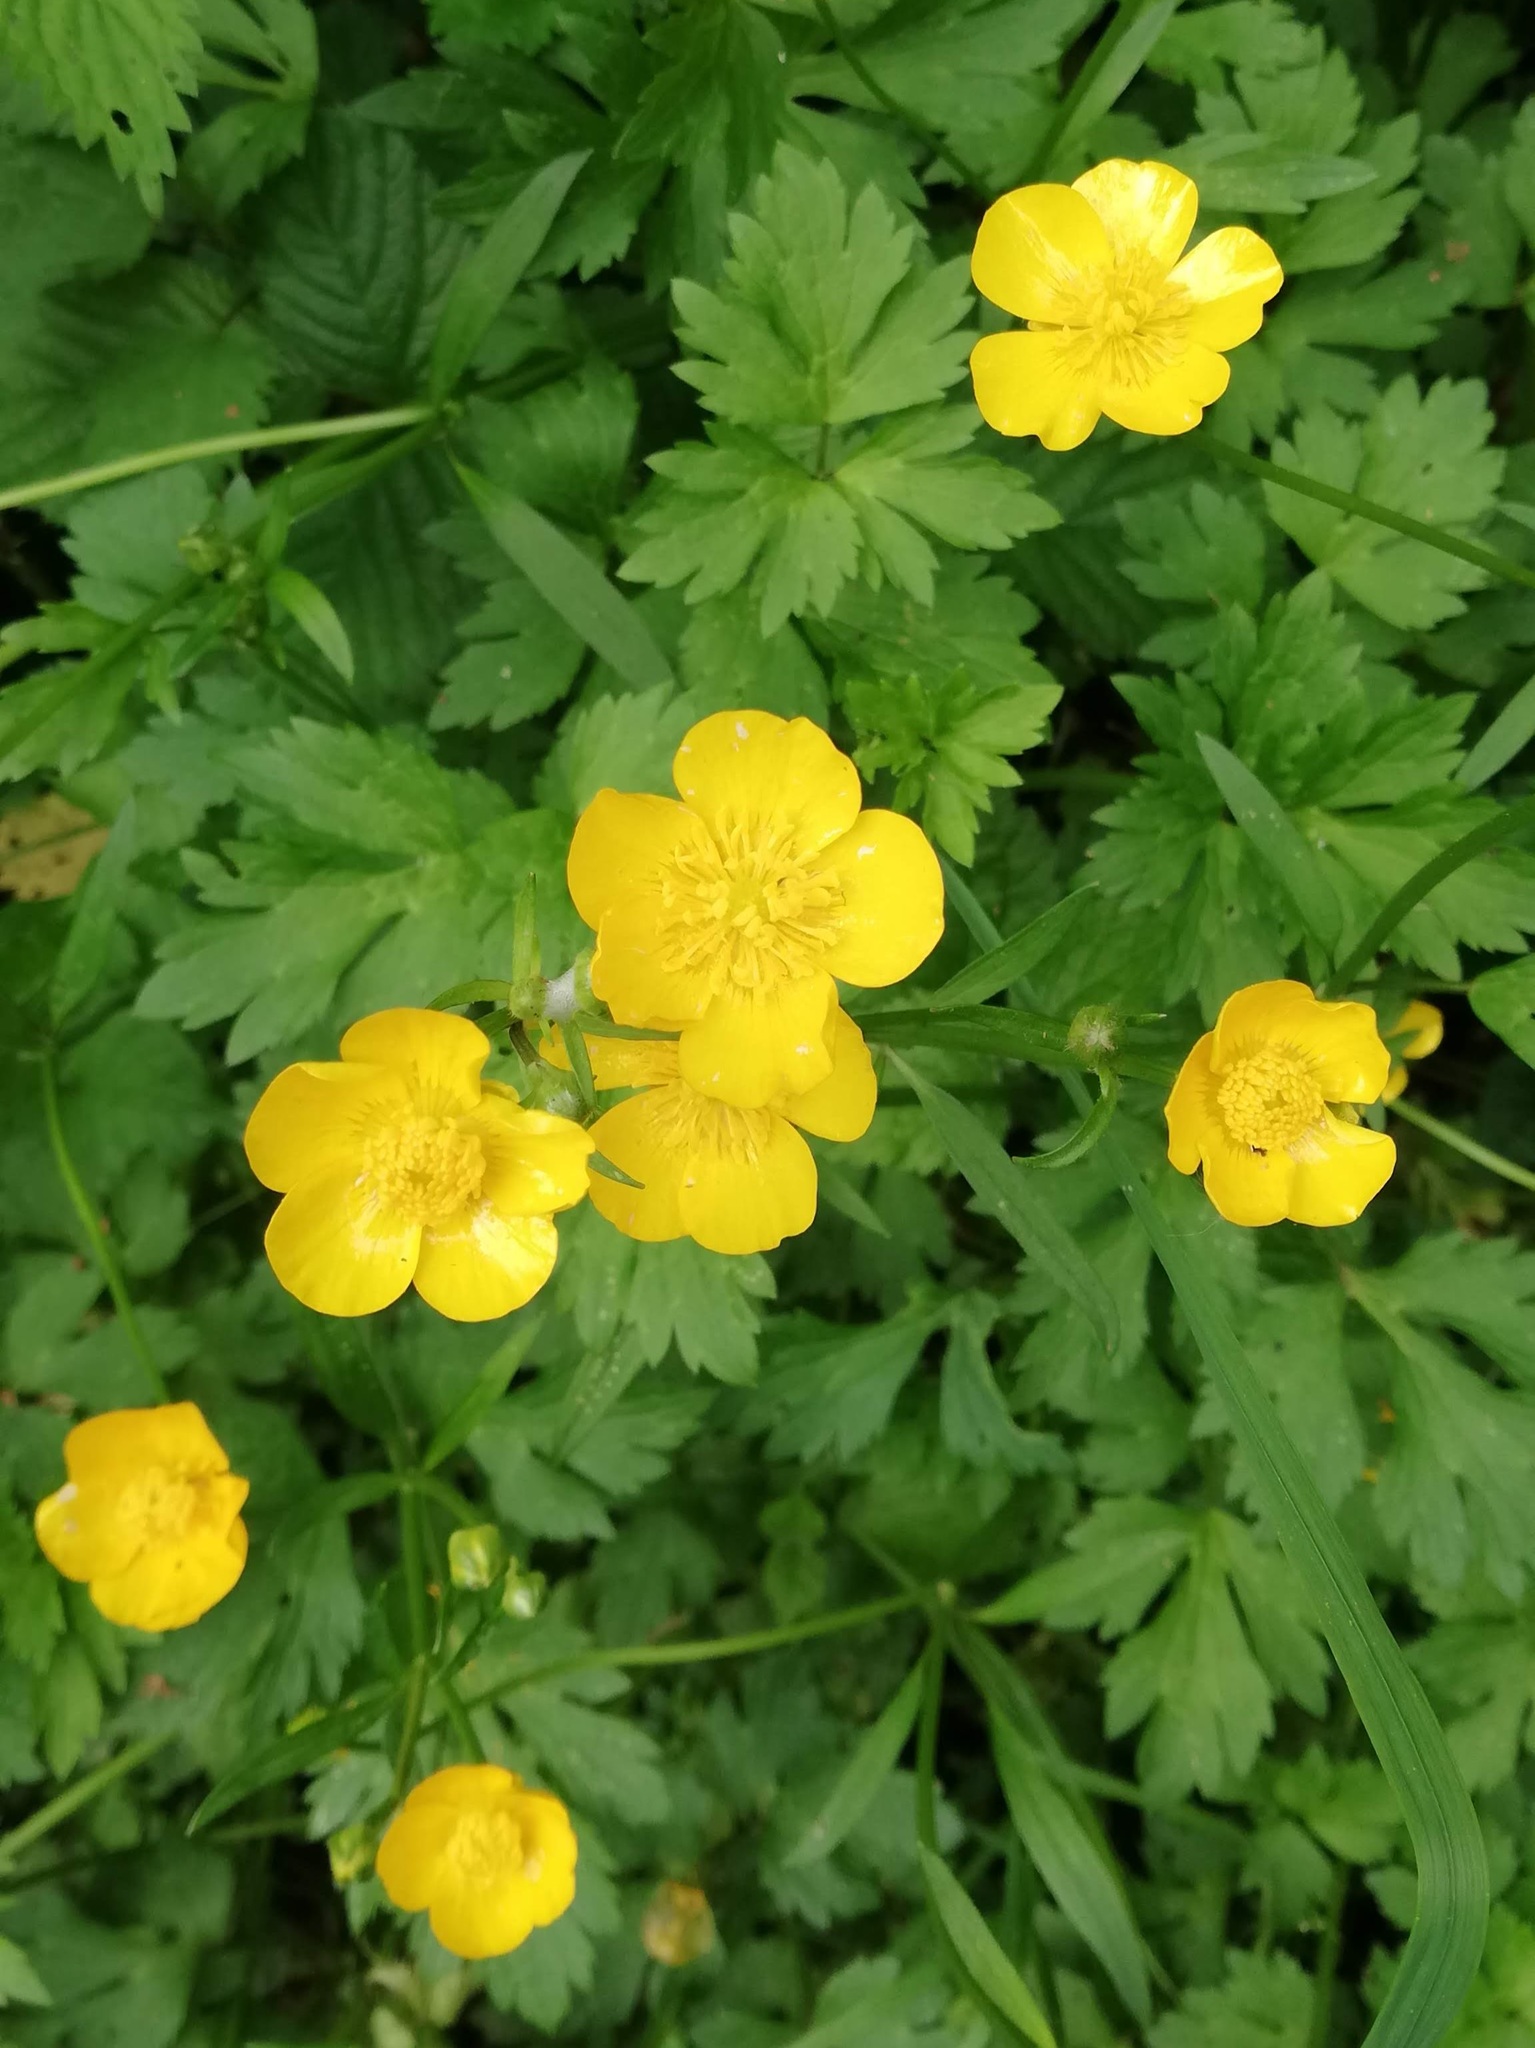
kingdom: Plantae
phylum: Tracheophyta
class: Magnoliopsida
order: Ranunculales
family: Ranunculaceae
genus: Ranunculus
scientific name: Ranunculus repens
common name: Creeping buttercup
